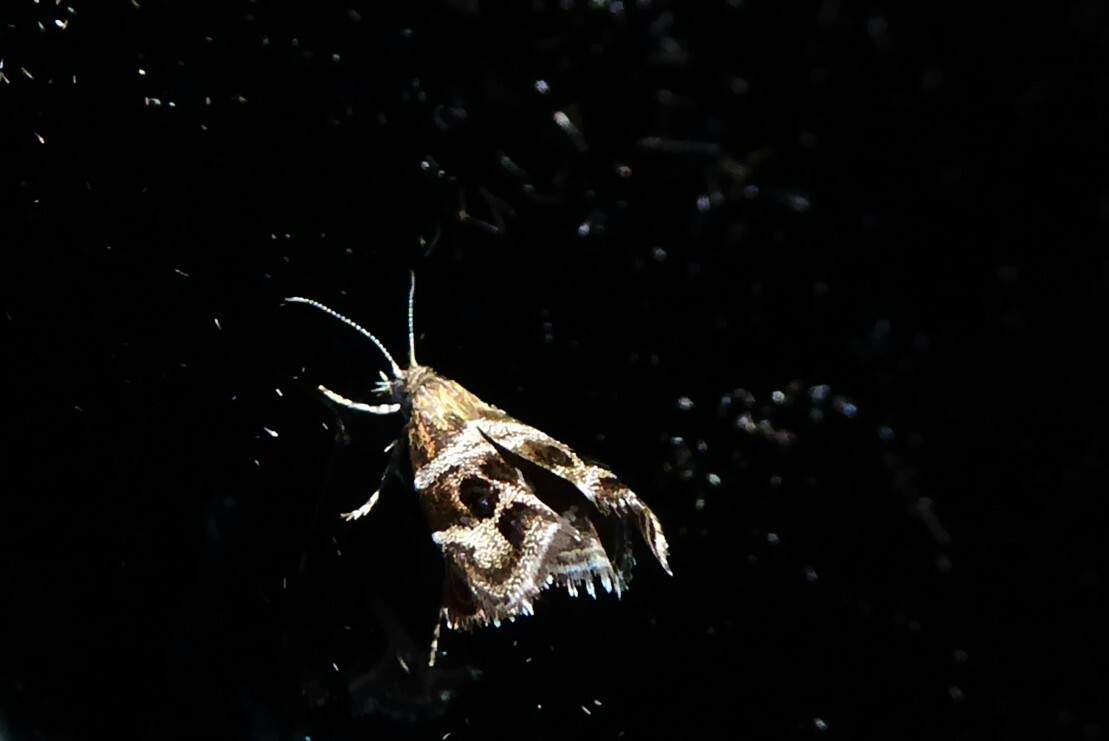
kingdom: Animalia
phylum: Arthropoda
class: Insecta
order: Lepidoptera
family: Choreutidae
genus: Tebenna
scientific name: Tebenna micalis
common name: Vagrant twitcher
